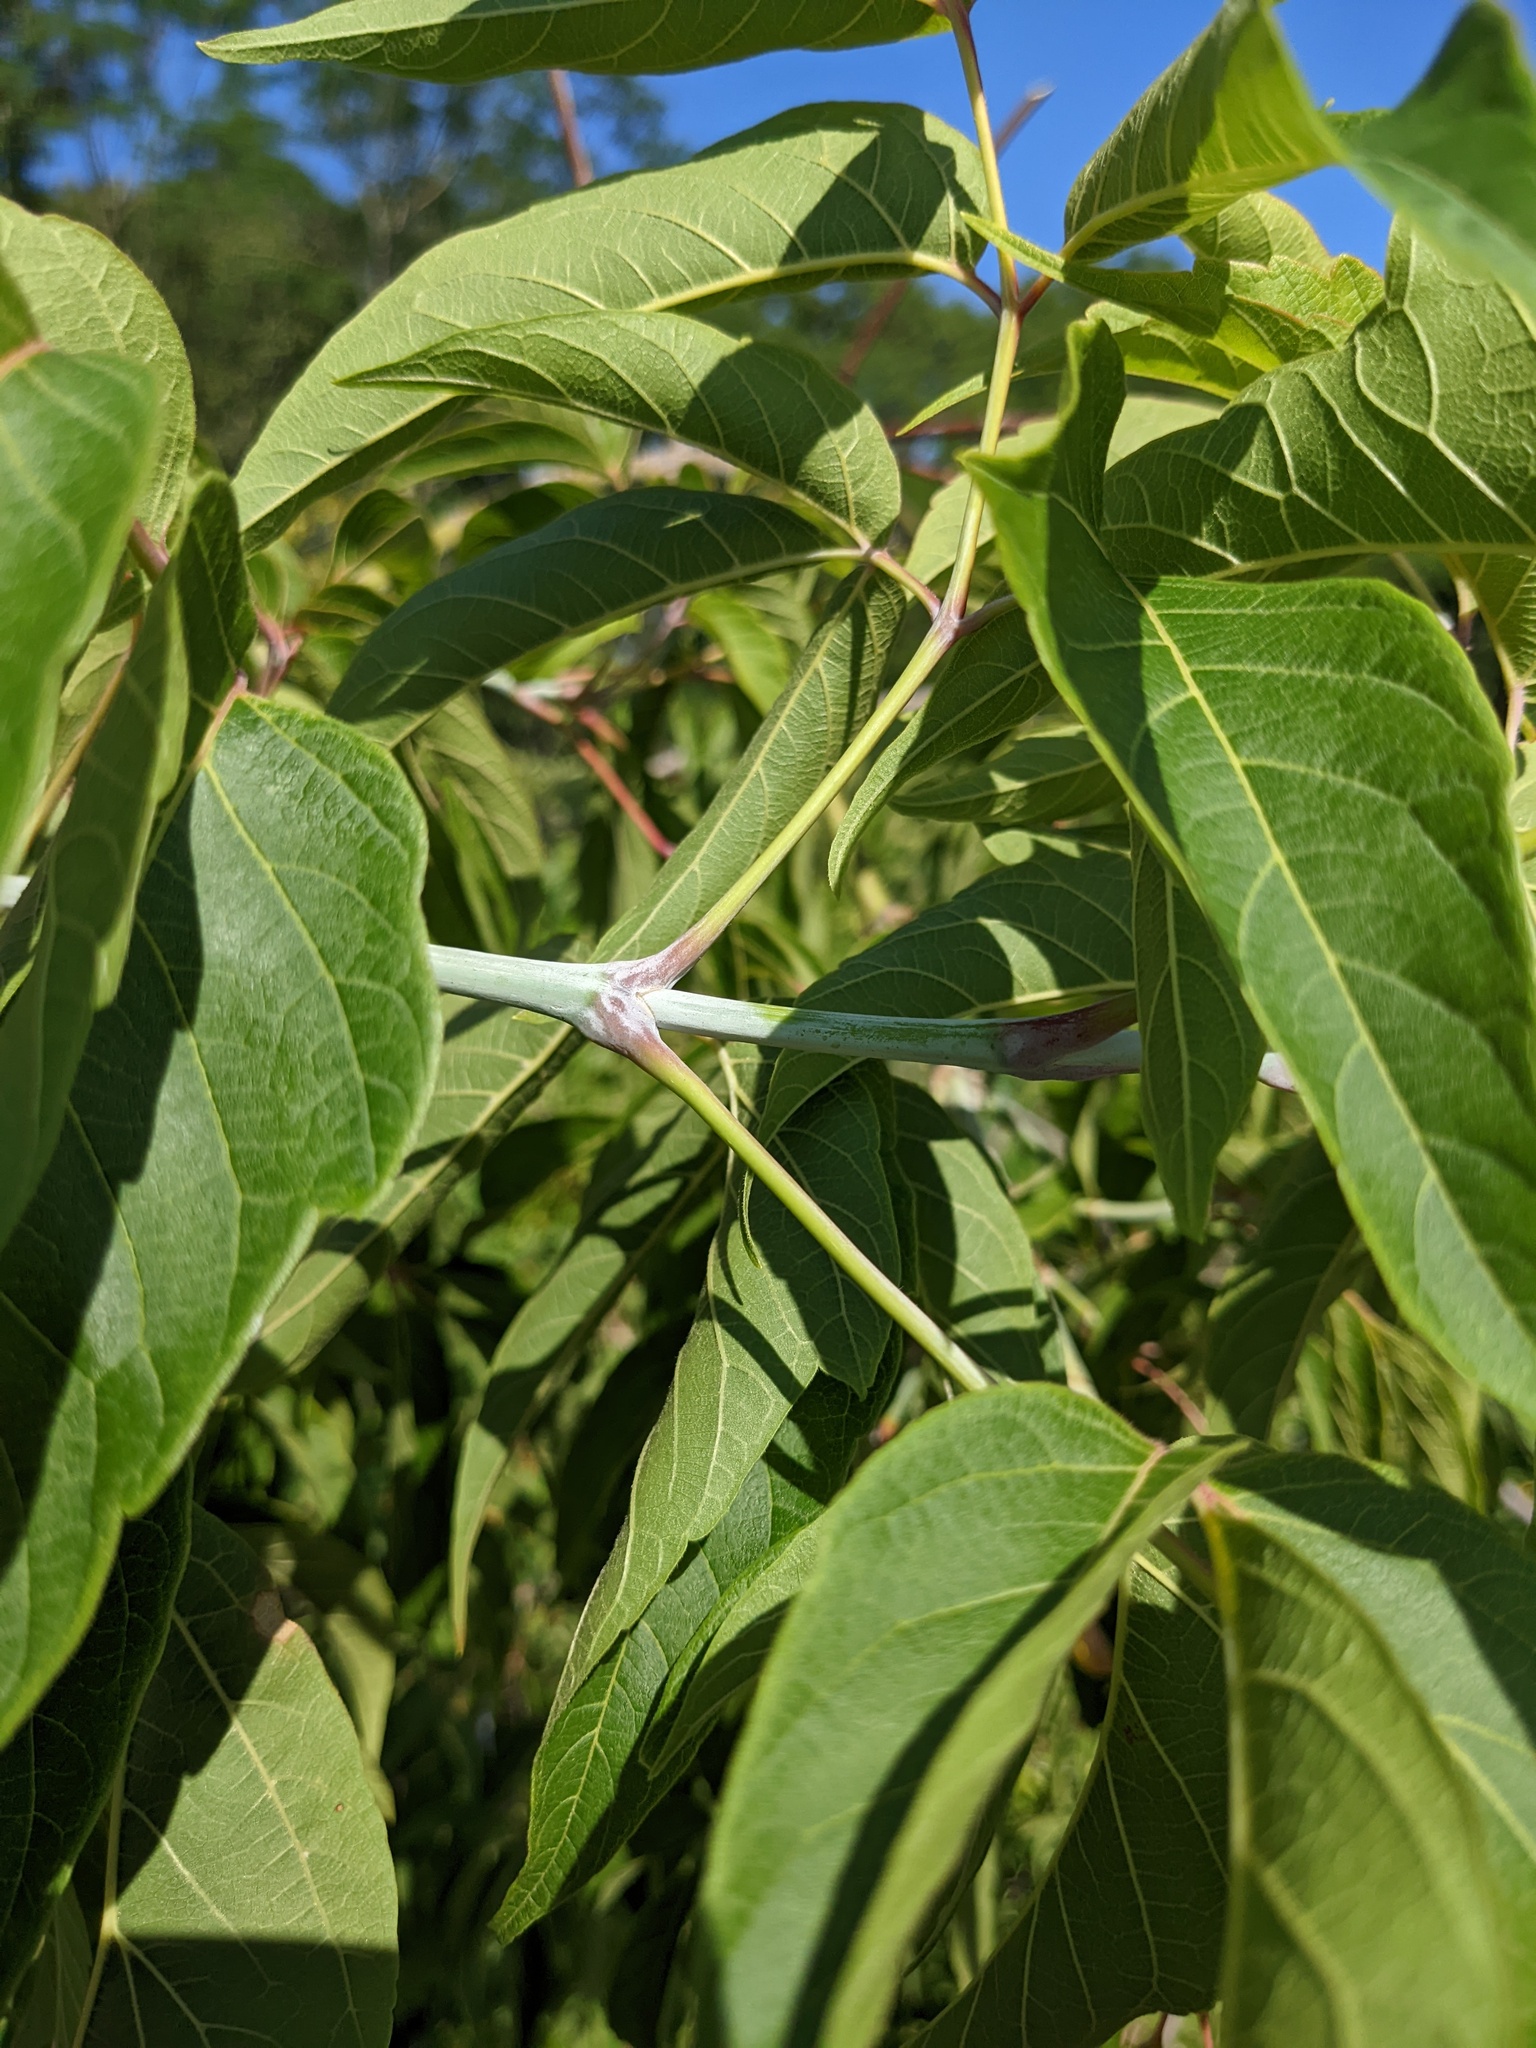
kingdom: Plantae
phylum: Tracheophyta
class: Magnoliopsida
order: Sapindales
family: Sapindaceae
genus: Acer
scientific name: Acer negundo
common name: Ashleaf maple
